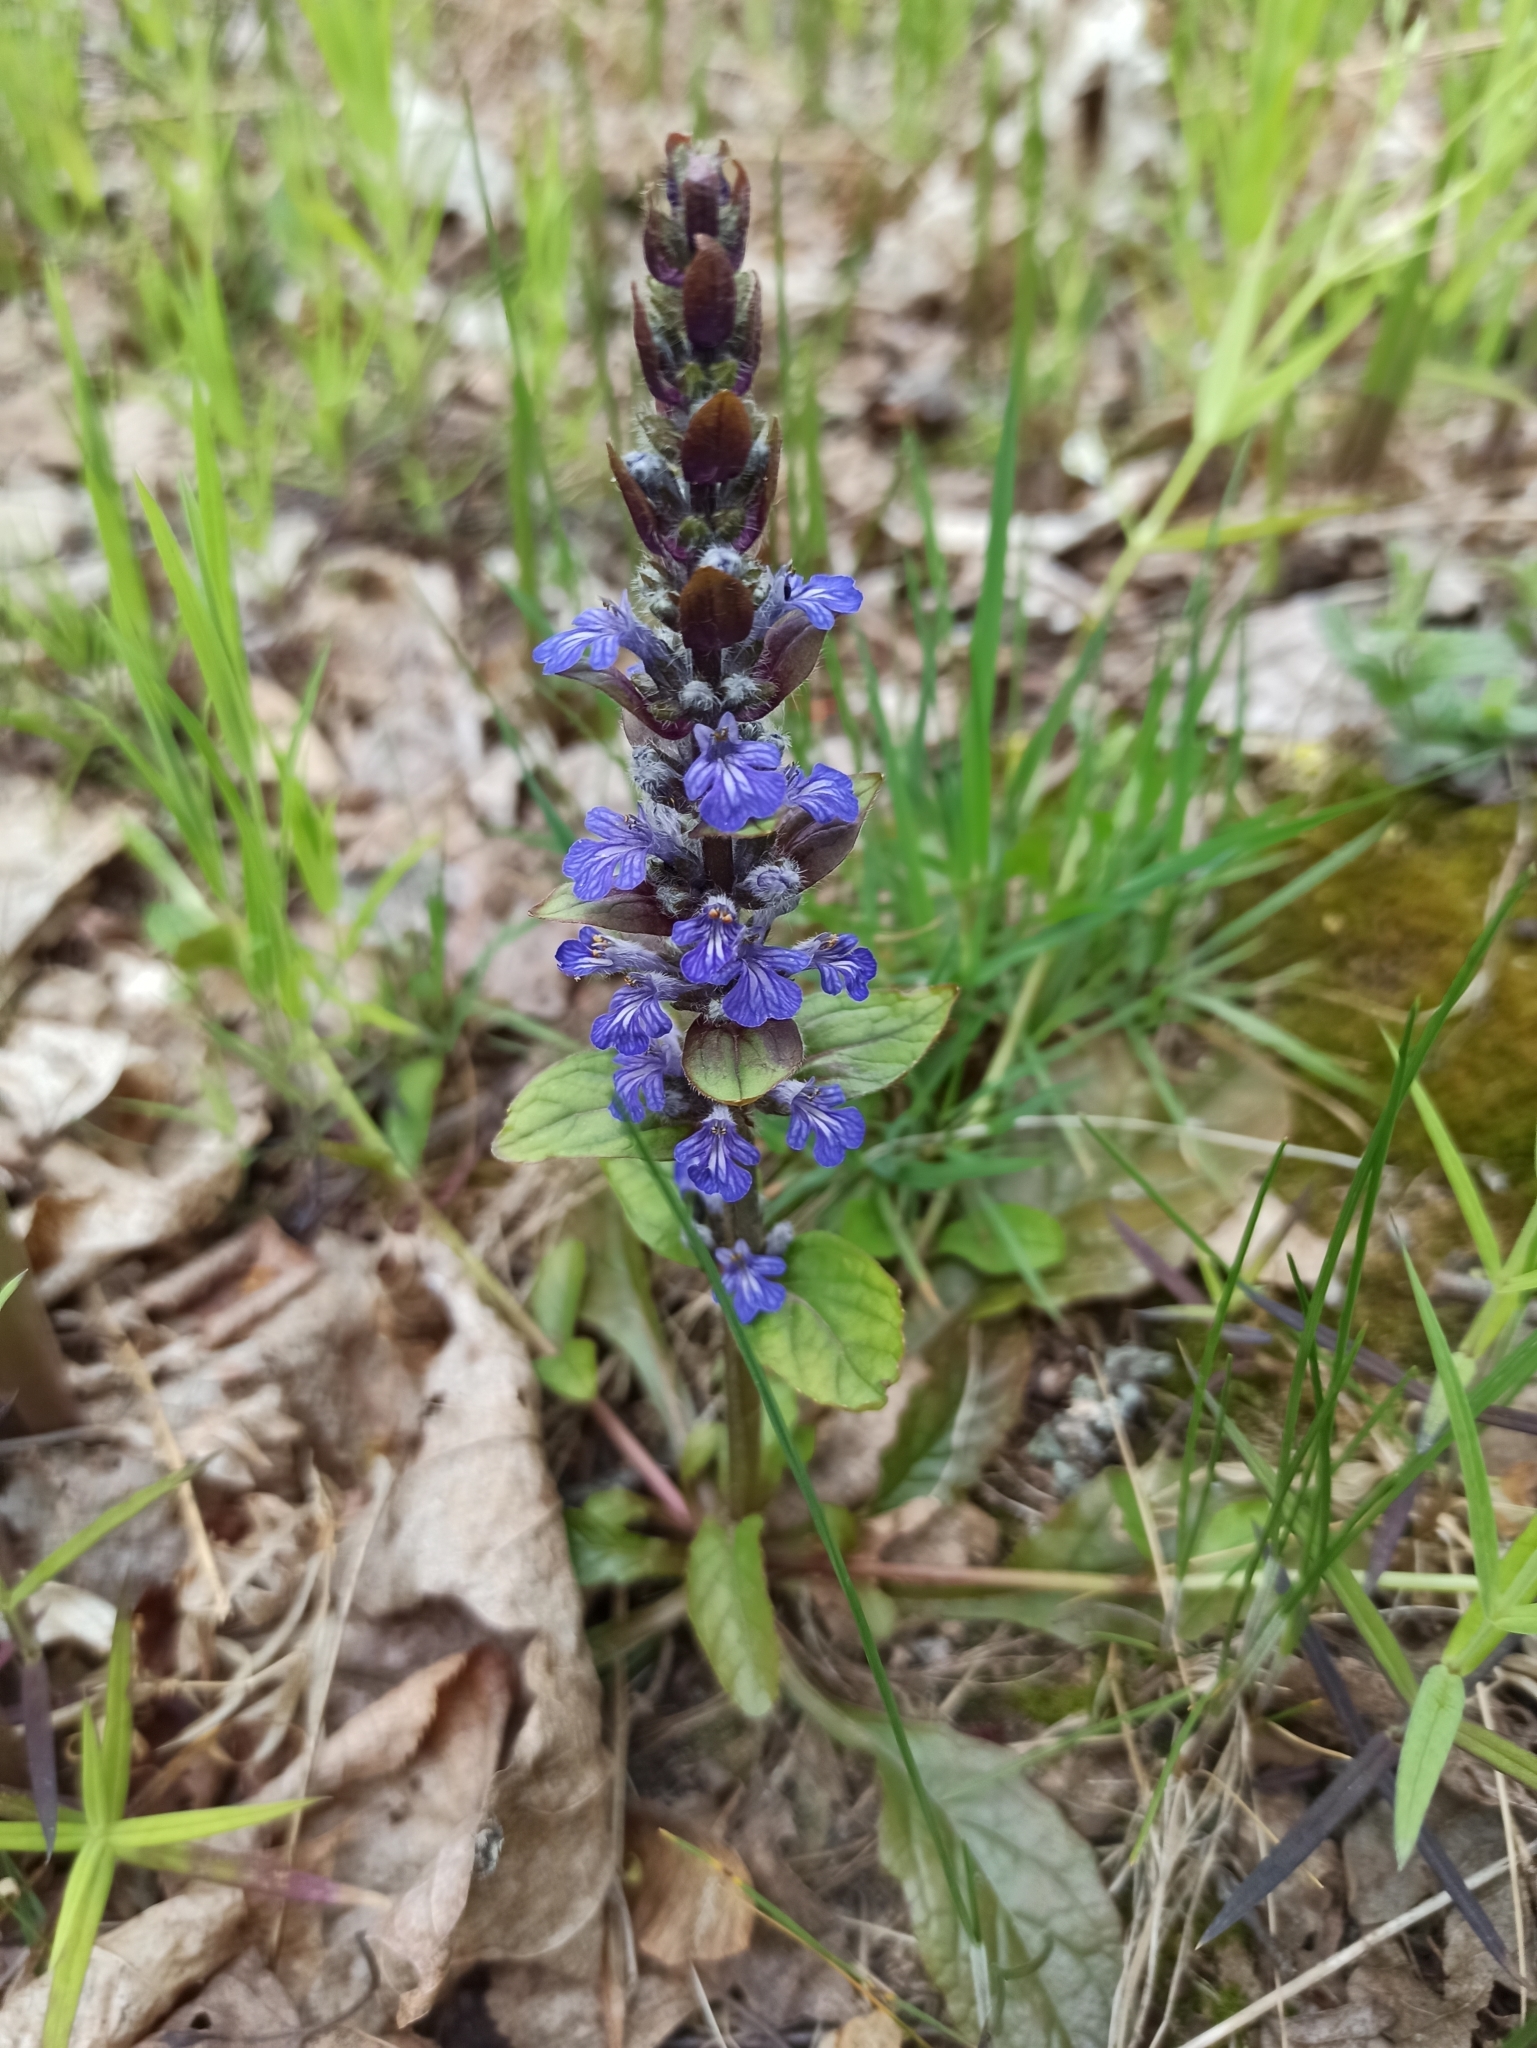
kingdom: Plantae
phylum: Tracheophyta
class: Magnoliopsida
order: Lamiales
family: Lamiaceae
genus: Ajuga
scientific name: Ajuga reptans
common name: Bugle
